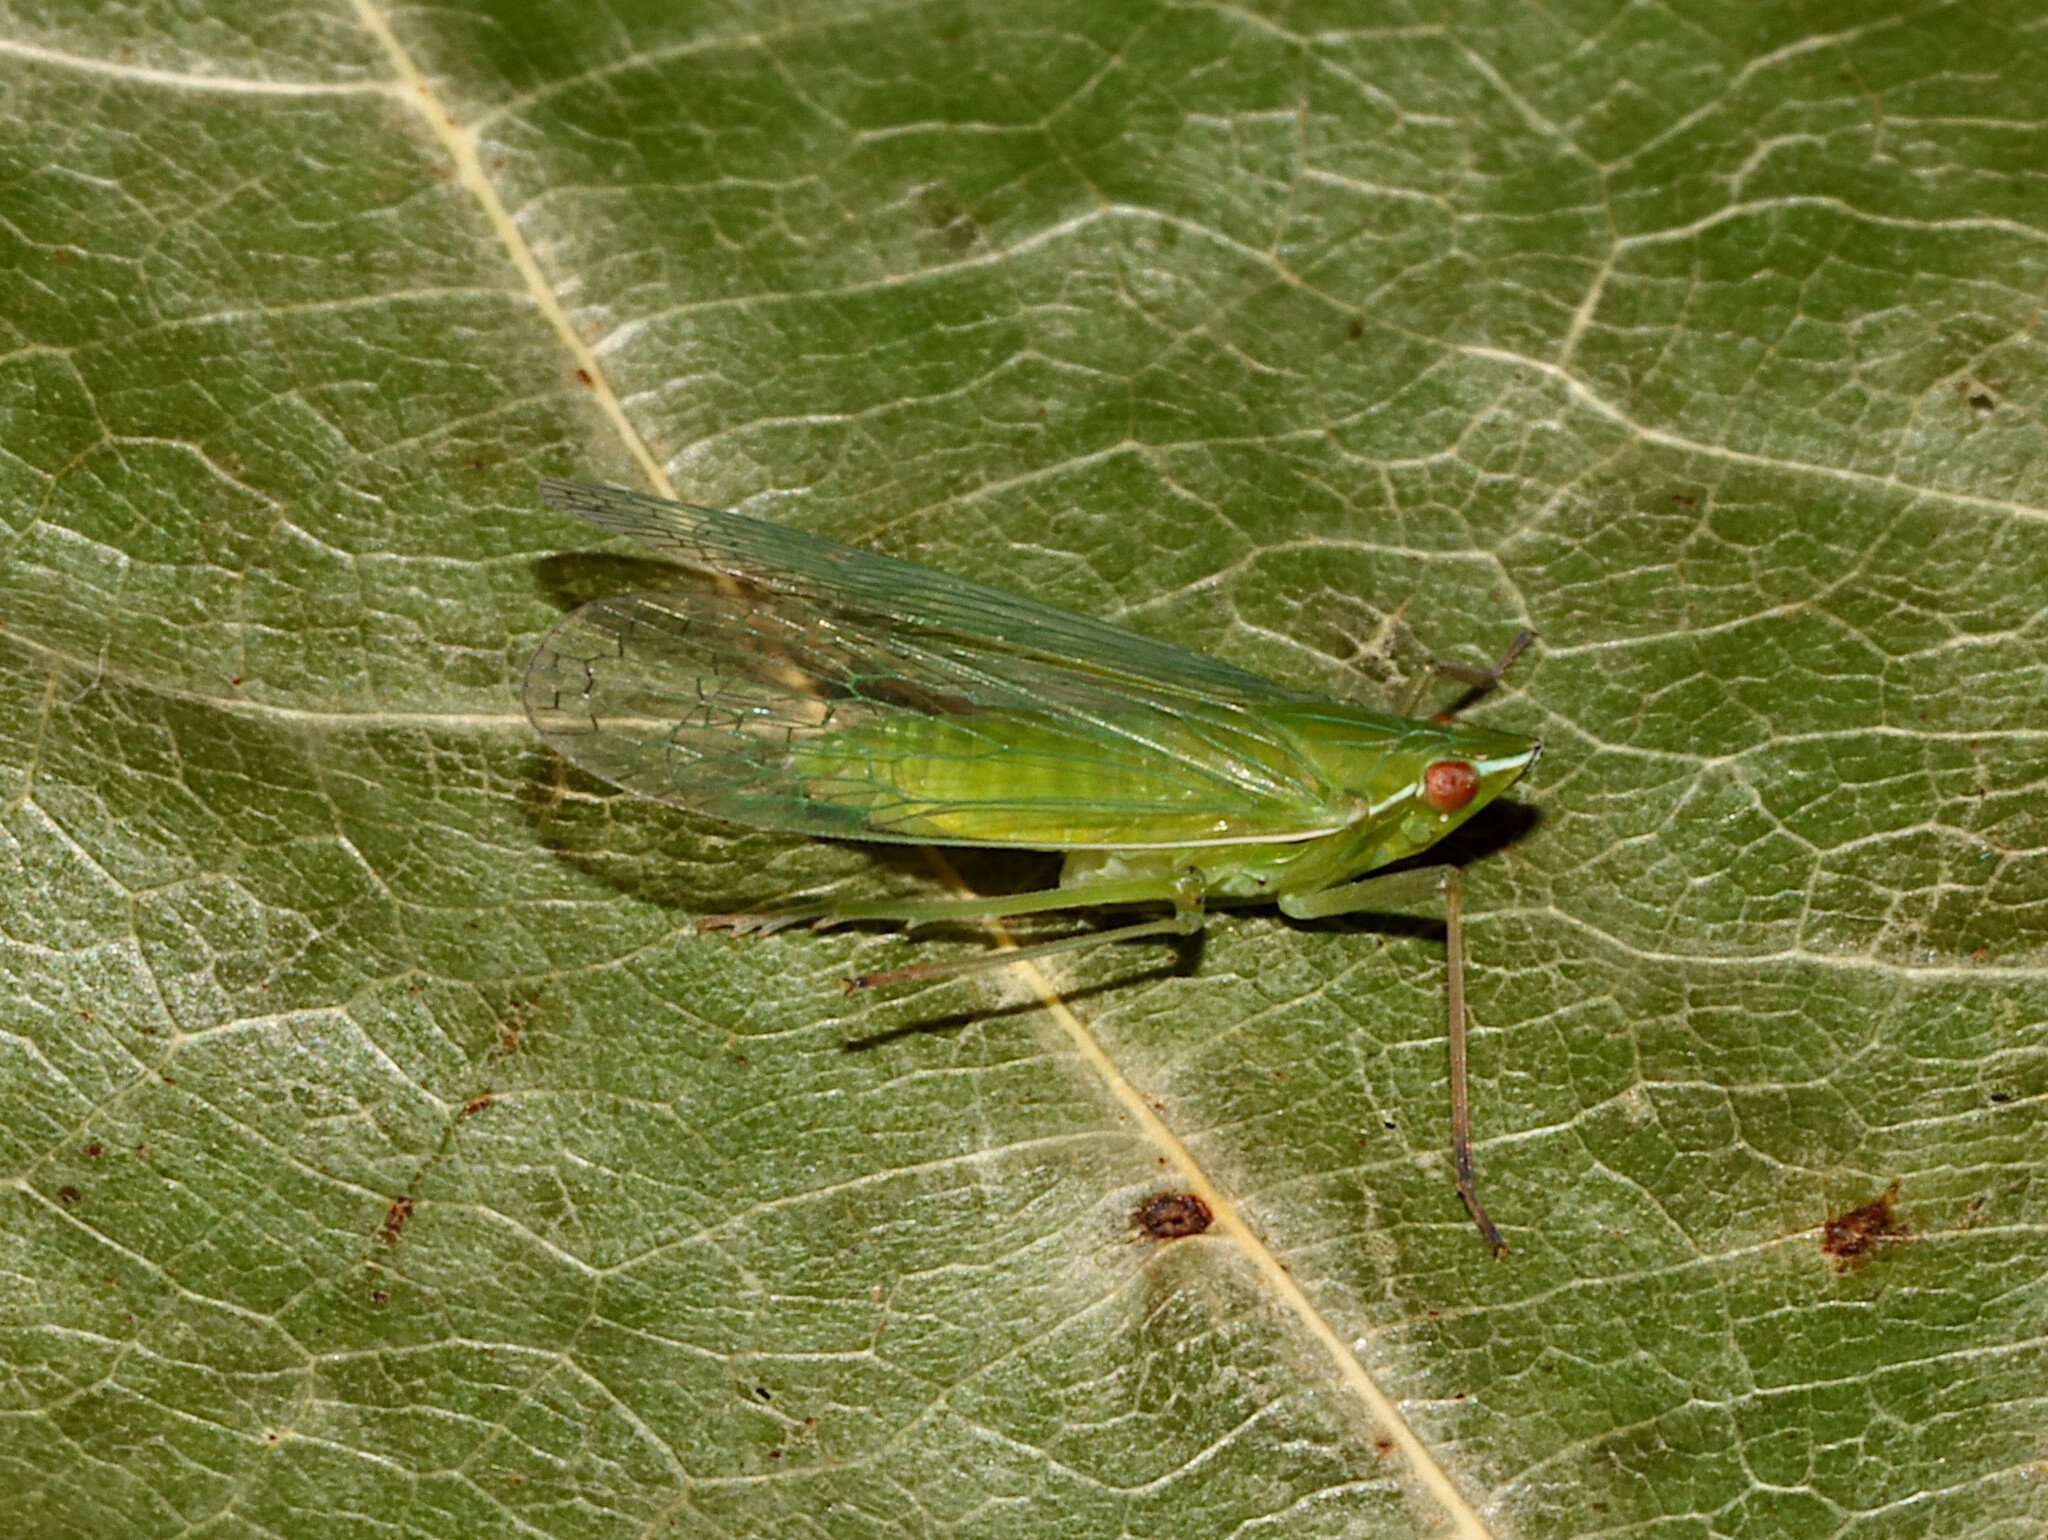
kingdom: Animalia
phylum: Arthropoda
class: Insecta
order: Hemiptera
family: Dictyopharidae
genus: Nersia
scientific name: Nersia florida
